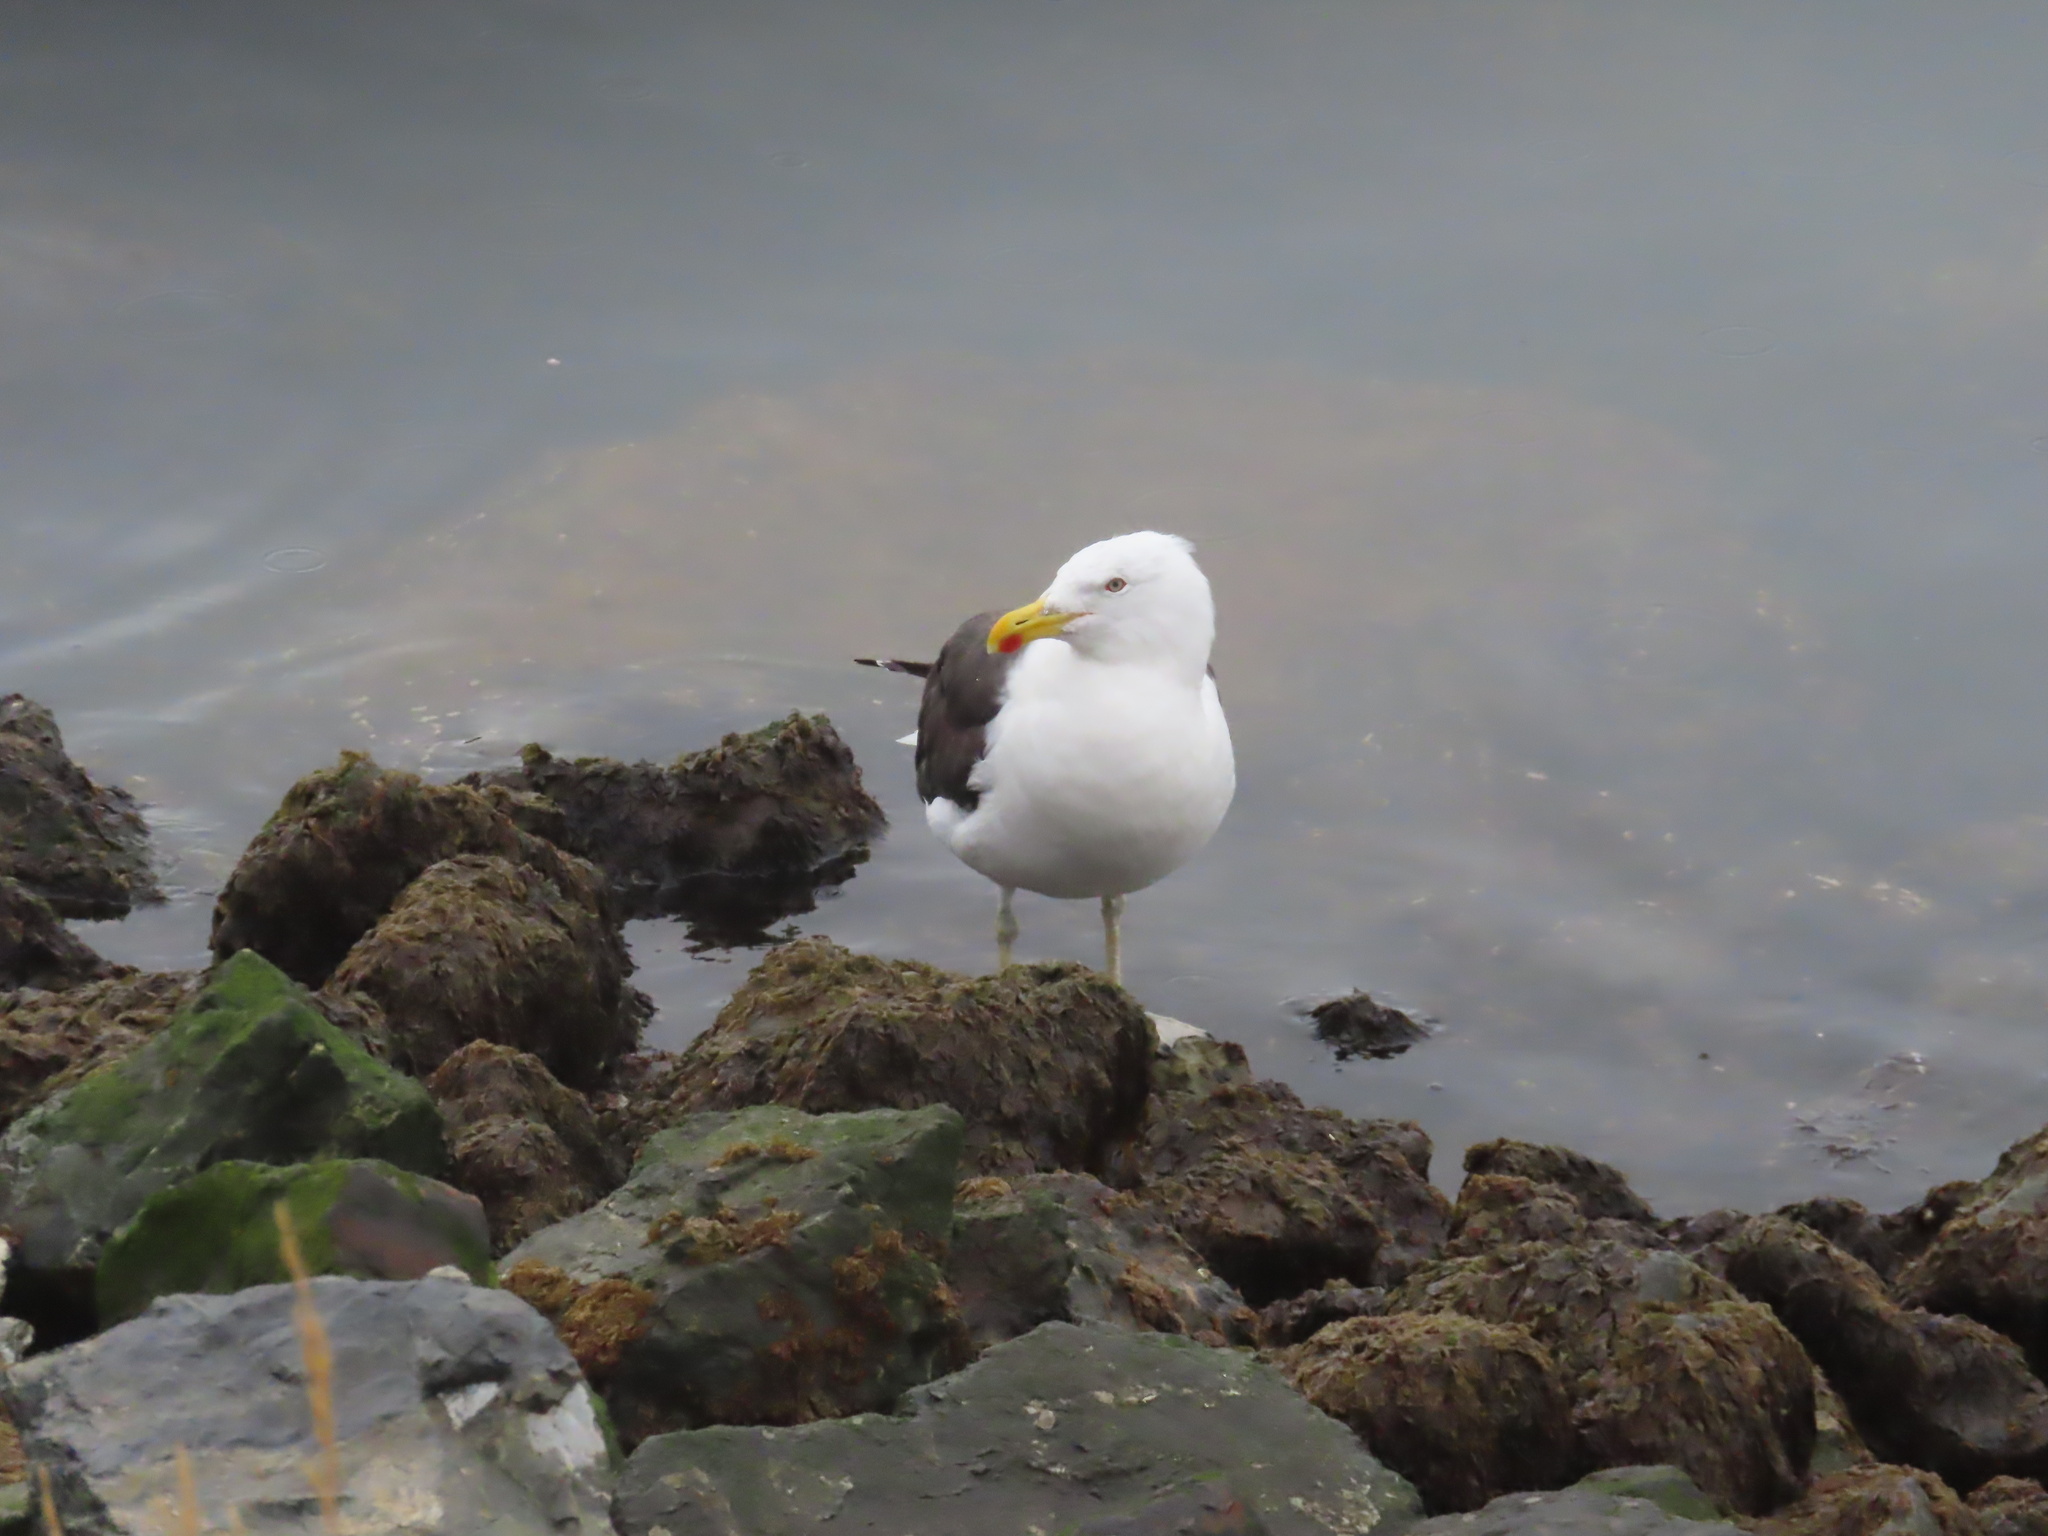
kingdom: Animalia
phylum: Chordata
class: Aves
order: Charadriiformes
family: Laridae
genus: Larus
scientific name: Larus dominicanus
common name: Kelp gull
